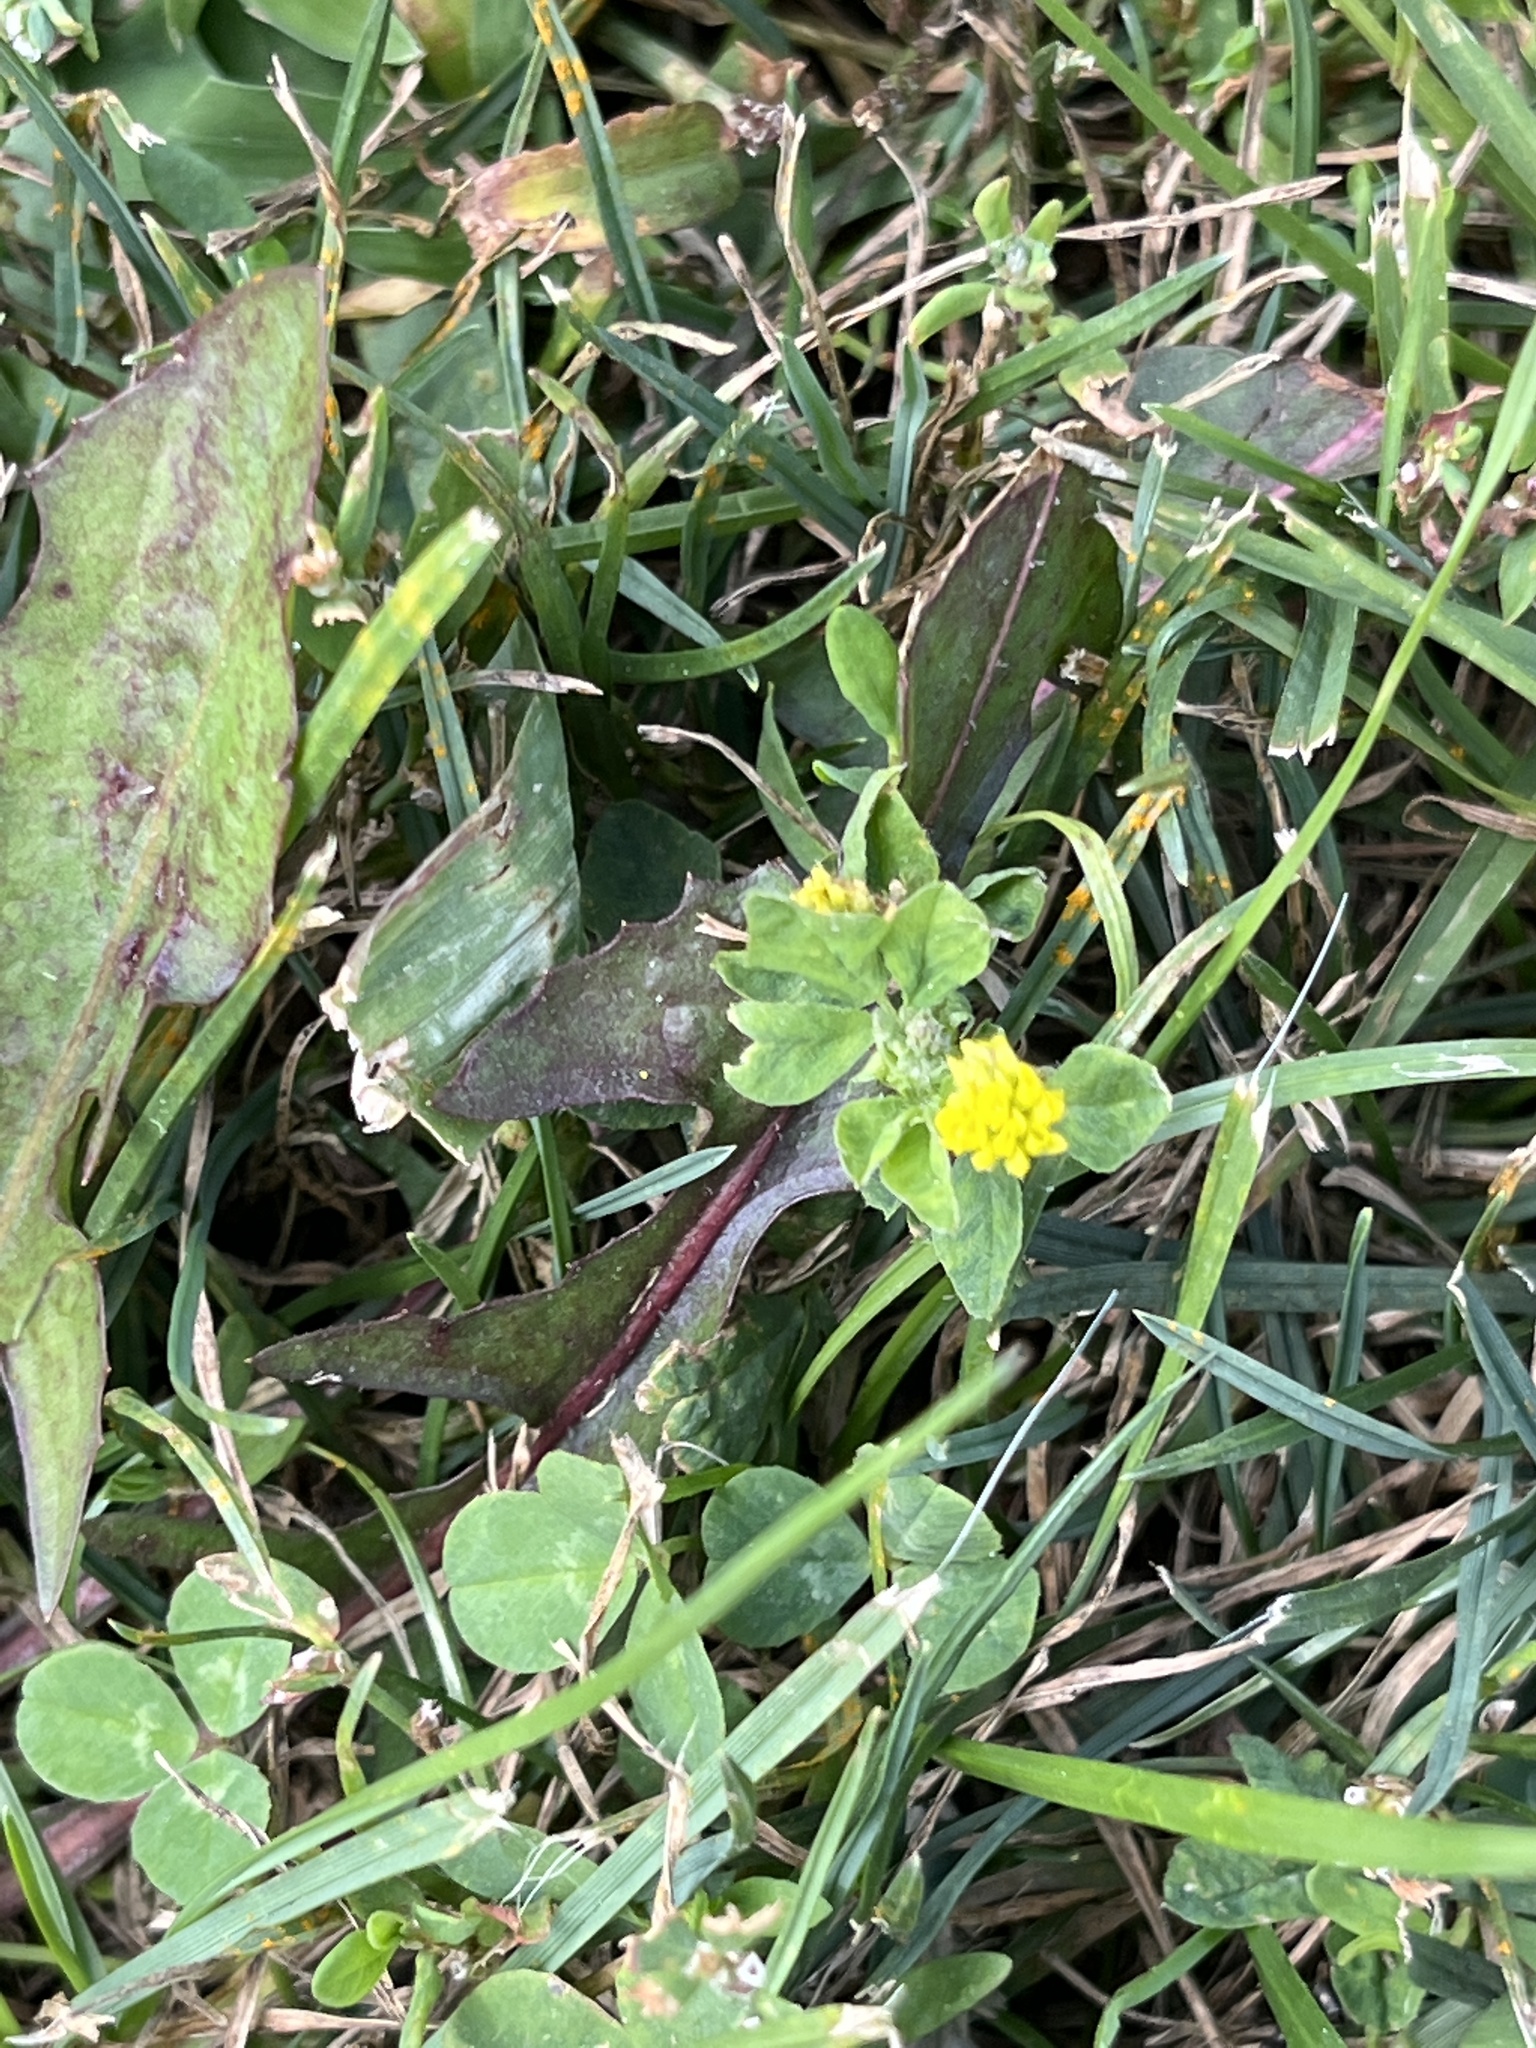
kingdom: Plantae
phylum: Tracheophyta
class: Magnoliopsida
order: Fabales
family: Fabaceae
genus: Medicago
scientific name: Medicago lupulina
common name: Black medick
